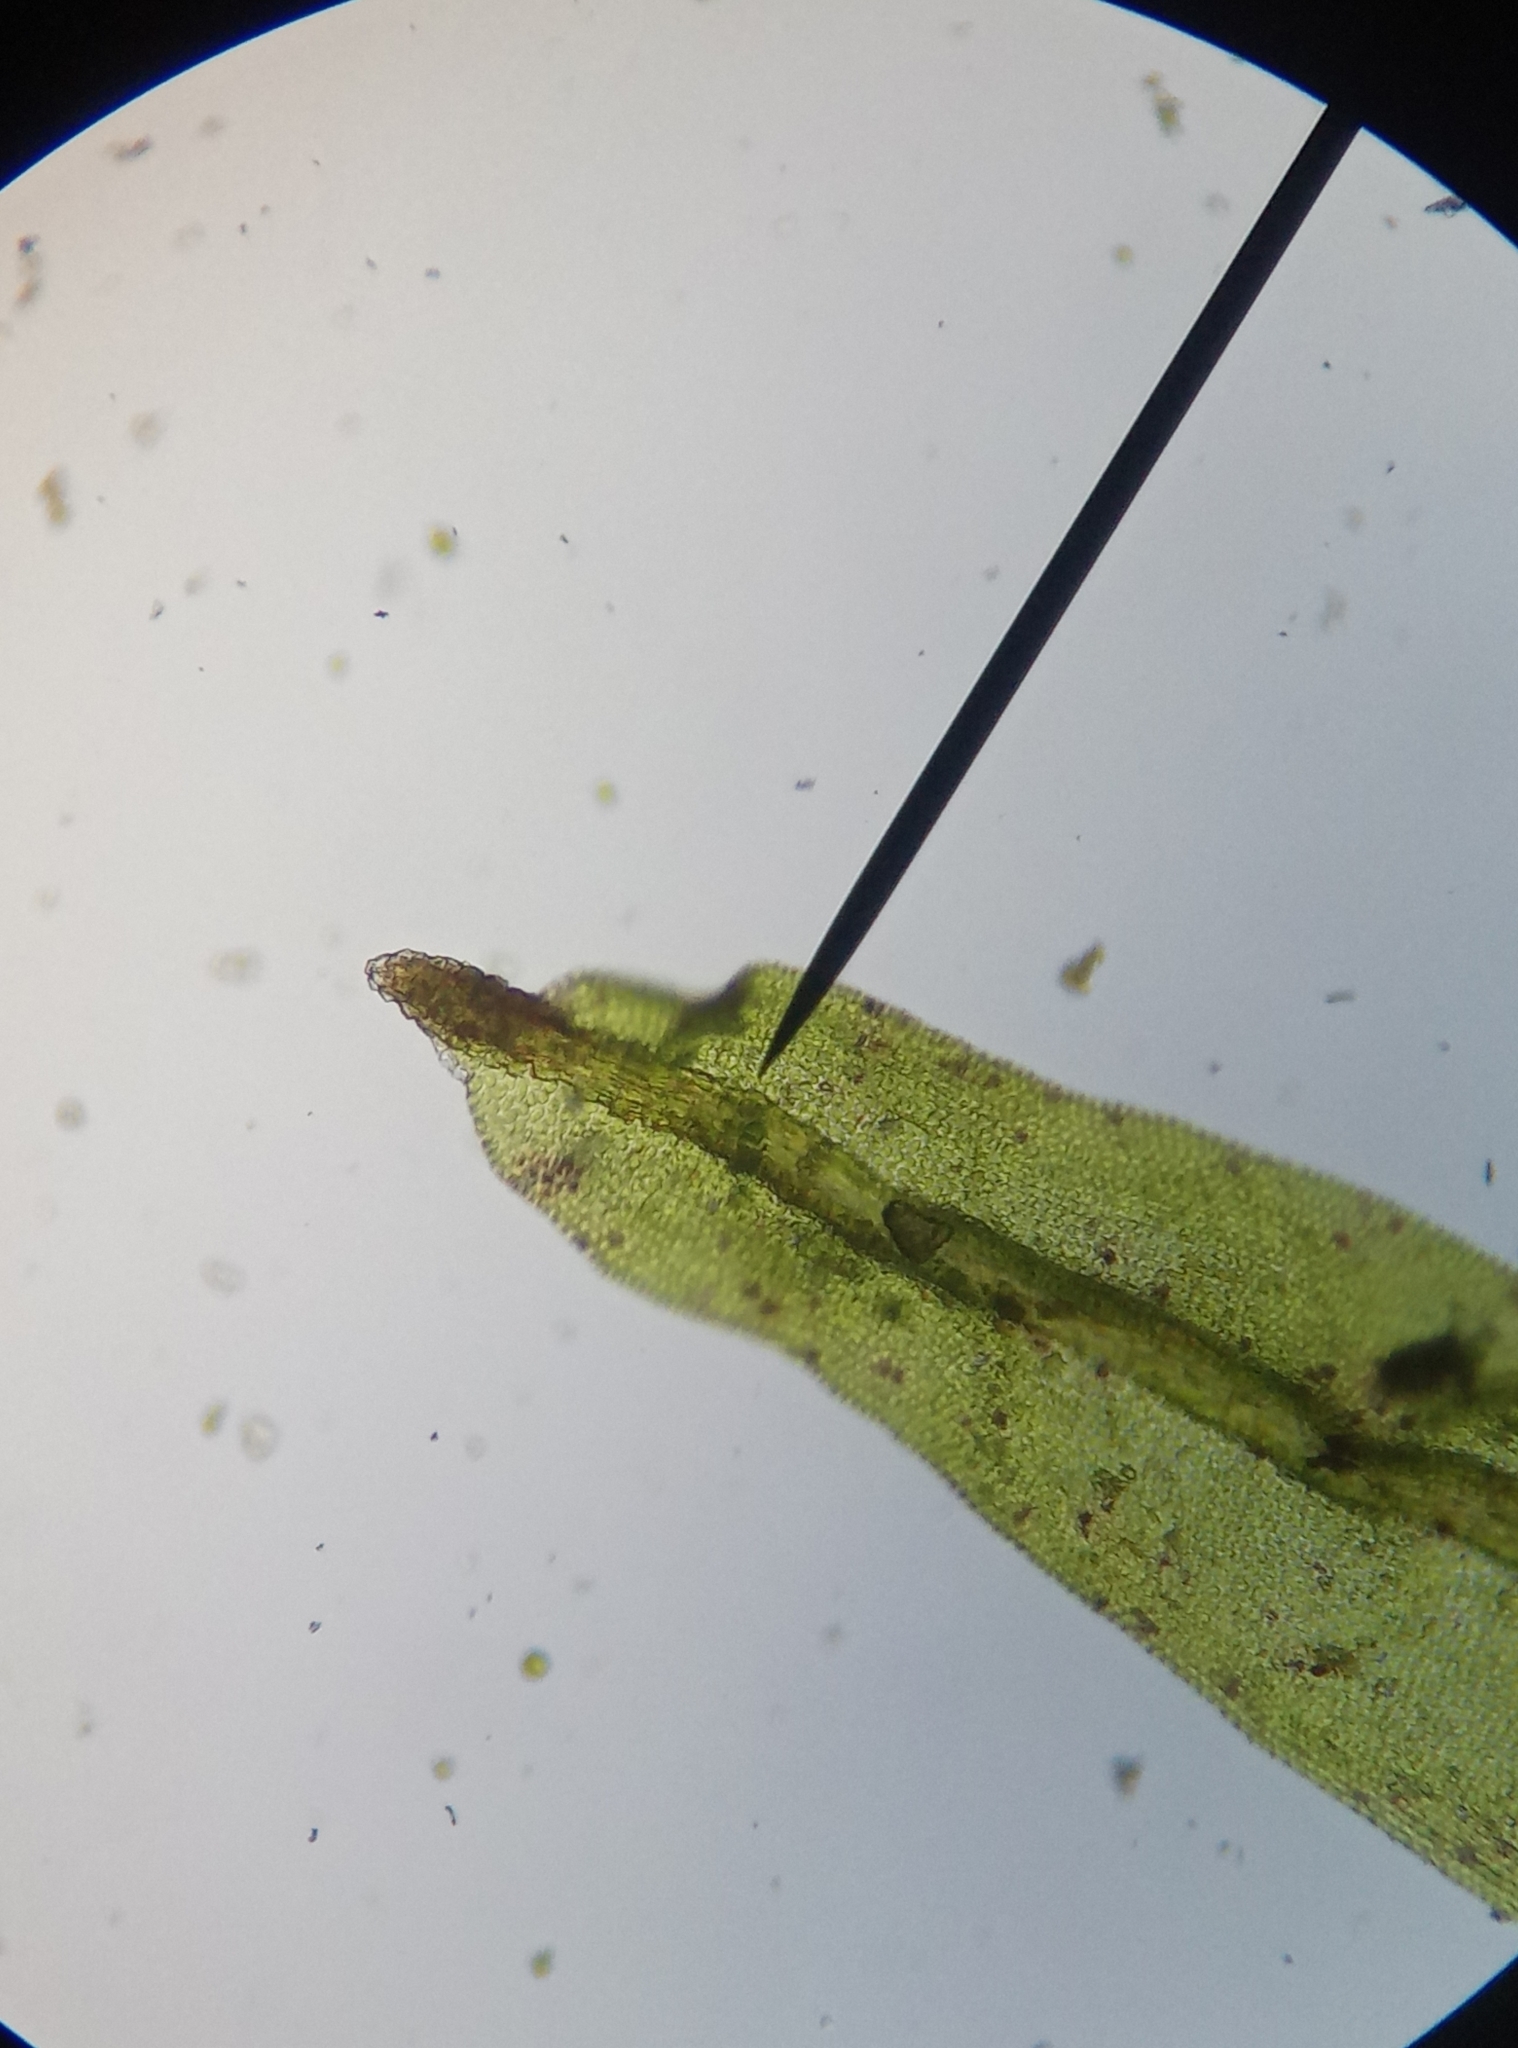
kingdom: Plantae
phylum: Bryophyta
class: Bryopsida
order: Orthotrichales
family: Orthotrichaceae
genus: Plenogemma
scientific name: Plenogemma phyllantha
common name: Frizzled pincushion
